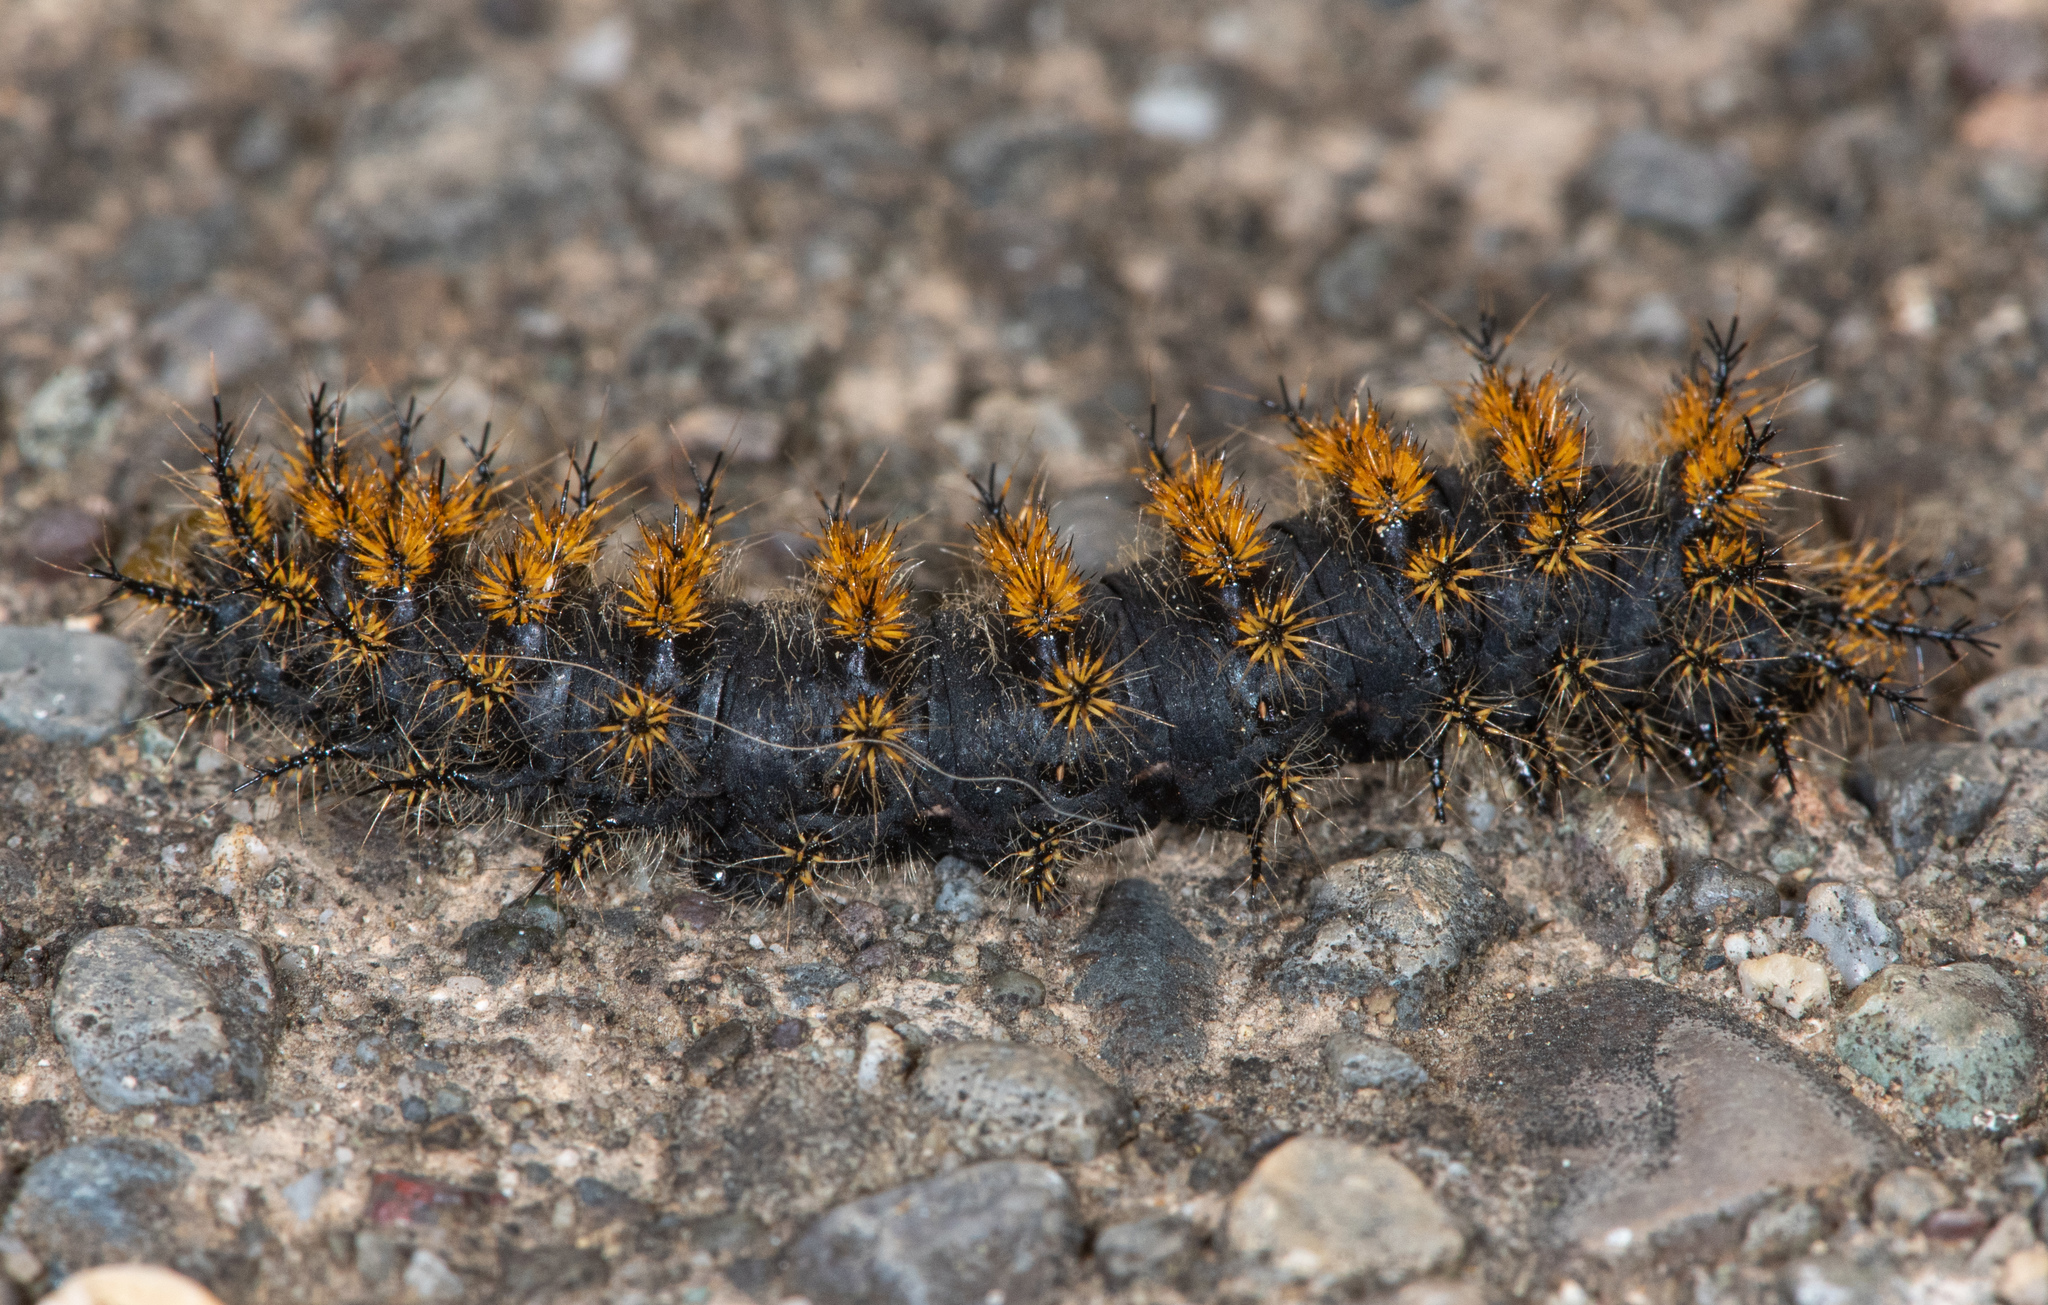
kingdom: Animalia
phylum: Arthropoda
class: Insecta
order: Lepidoptera
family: Saturniidae
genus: Hemileuca
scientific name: Hemileuca eglanterina
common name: Western sheepmoth
